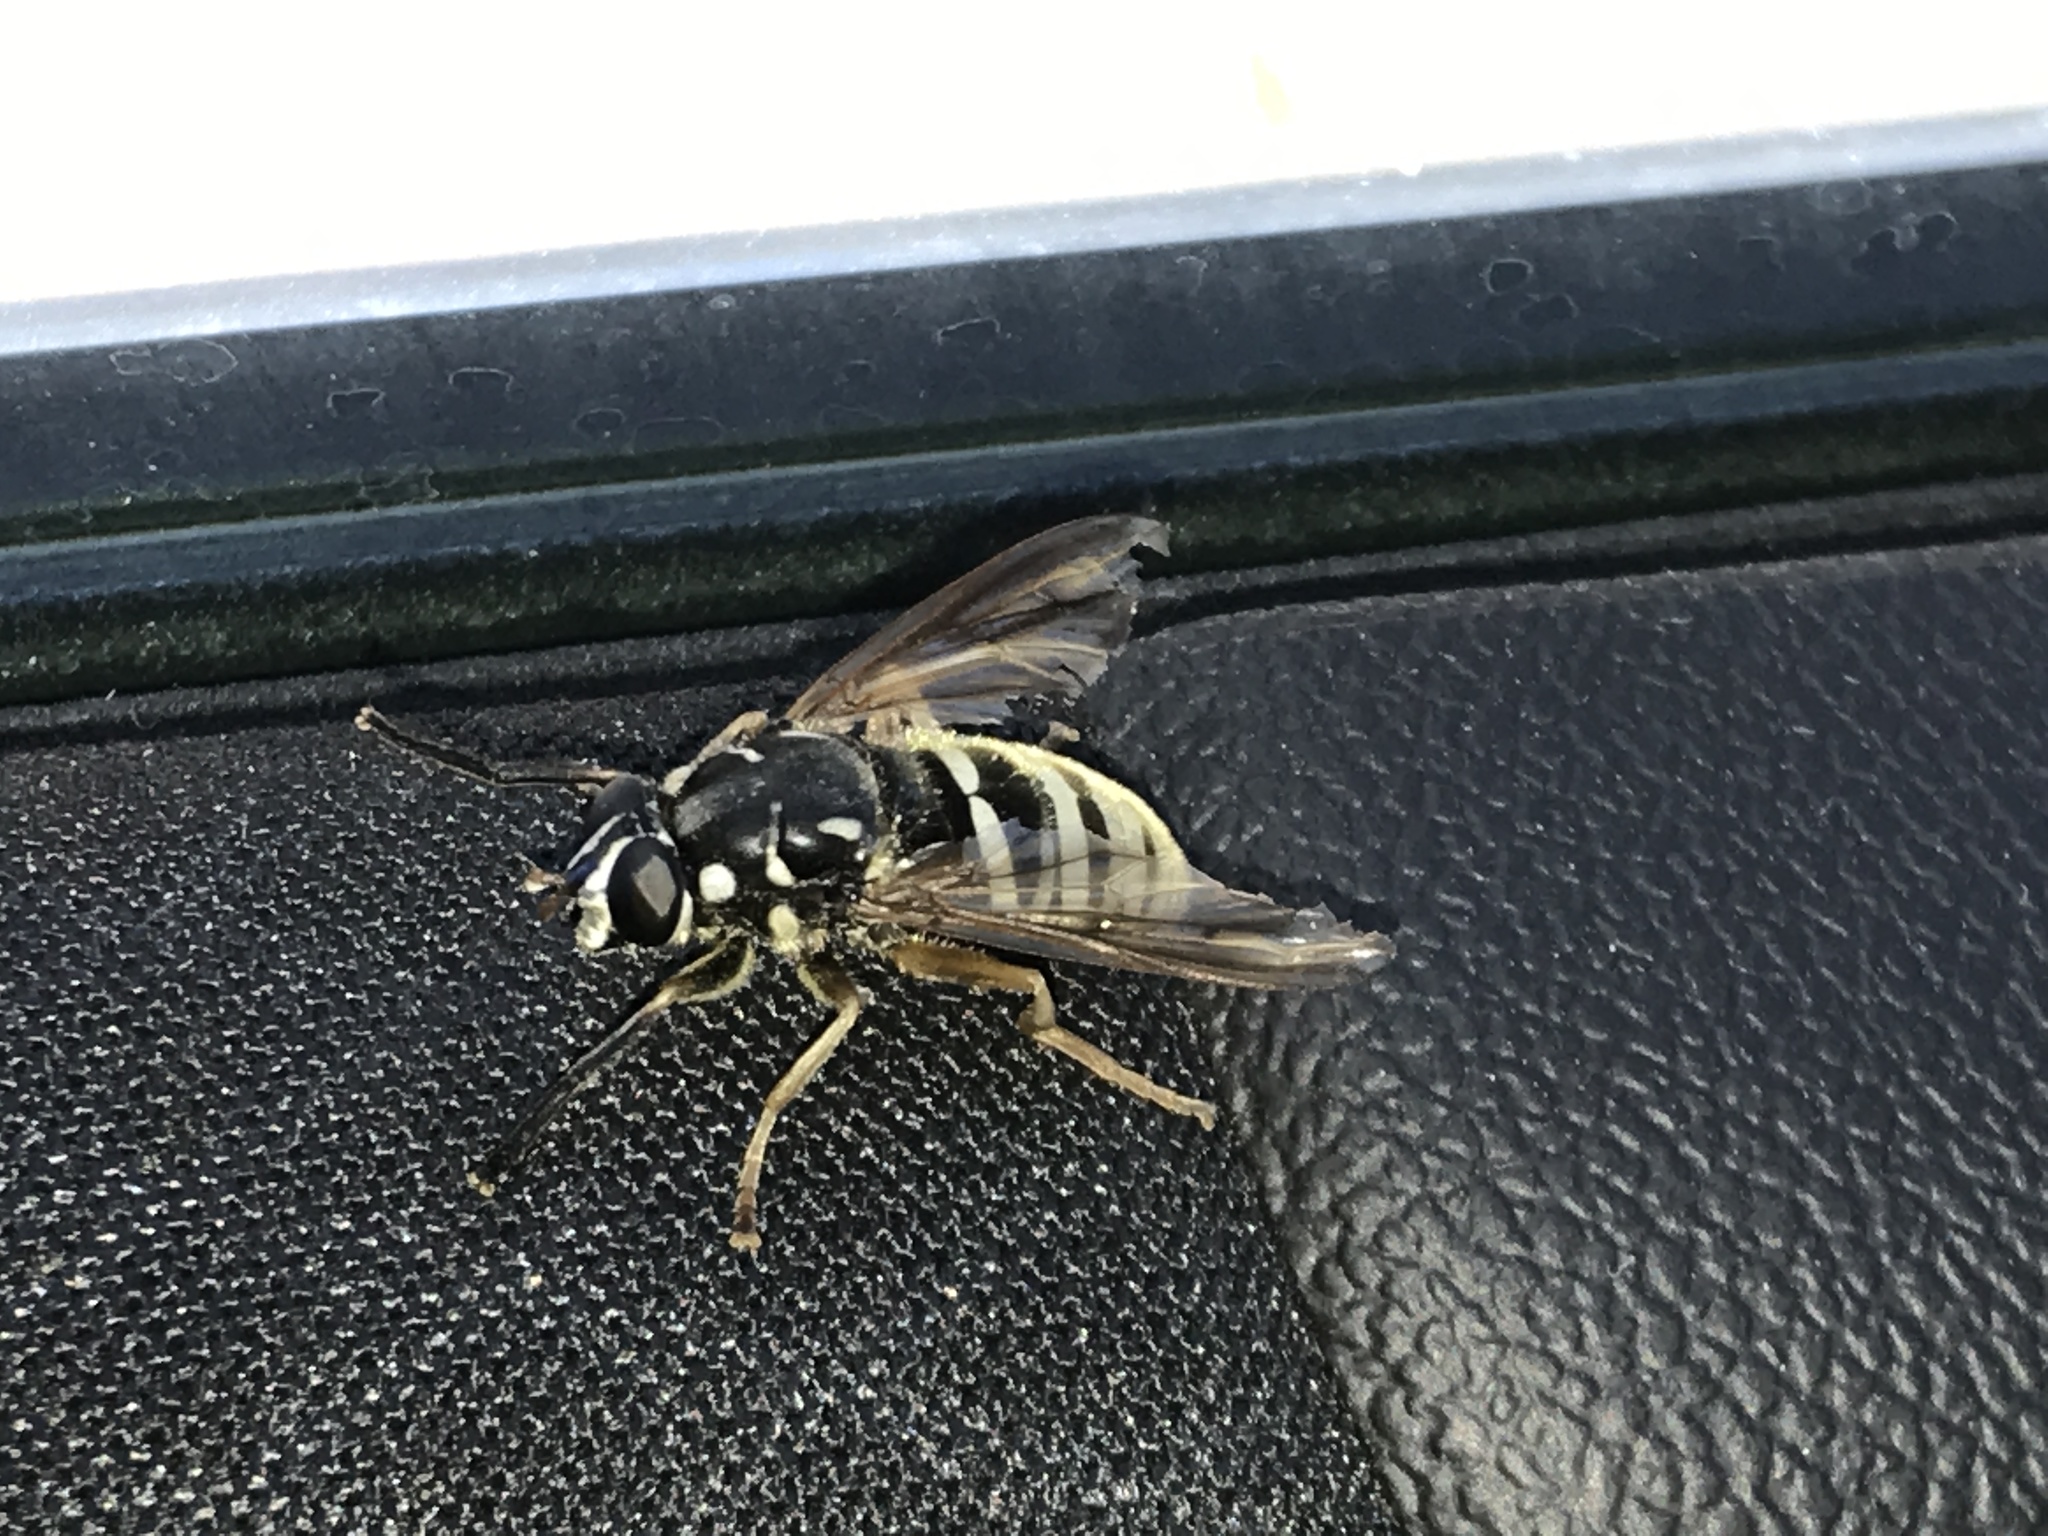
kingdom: Animalia
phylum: Arthropoda
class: Insecta
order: Diptera
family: Syrphidae
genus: Temnostoma
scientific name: Temnostoma excentricum
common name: Black-spotted falsehorn
